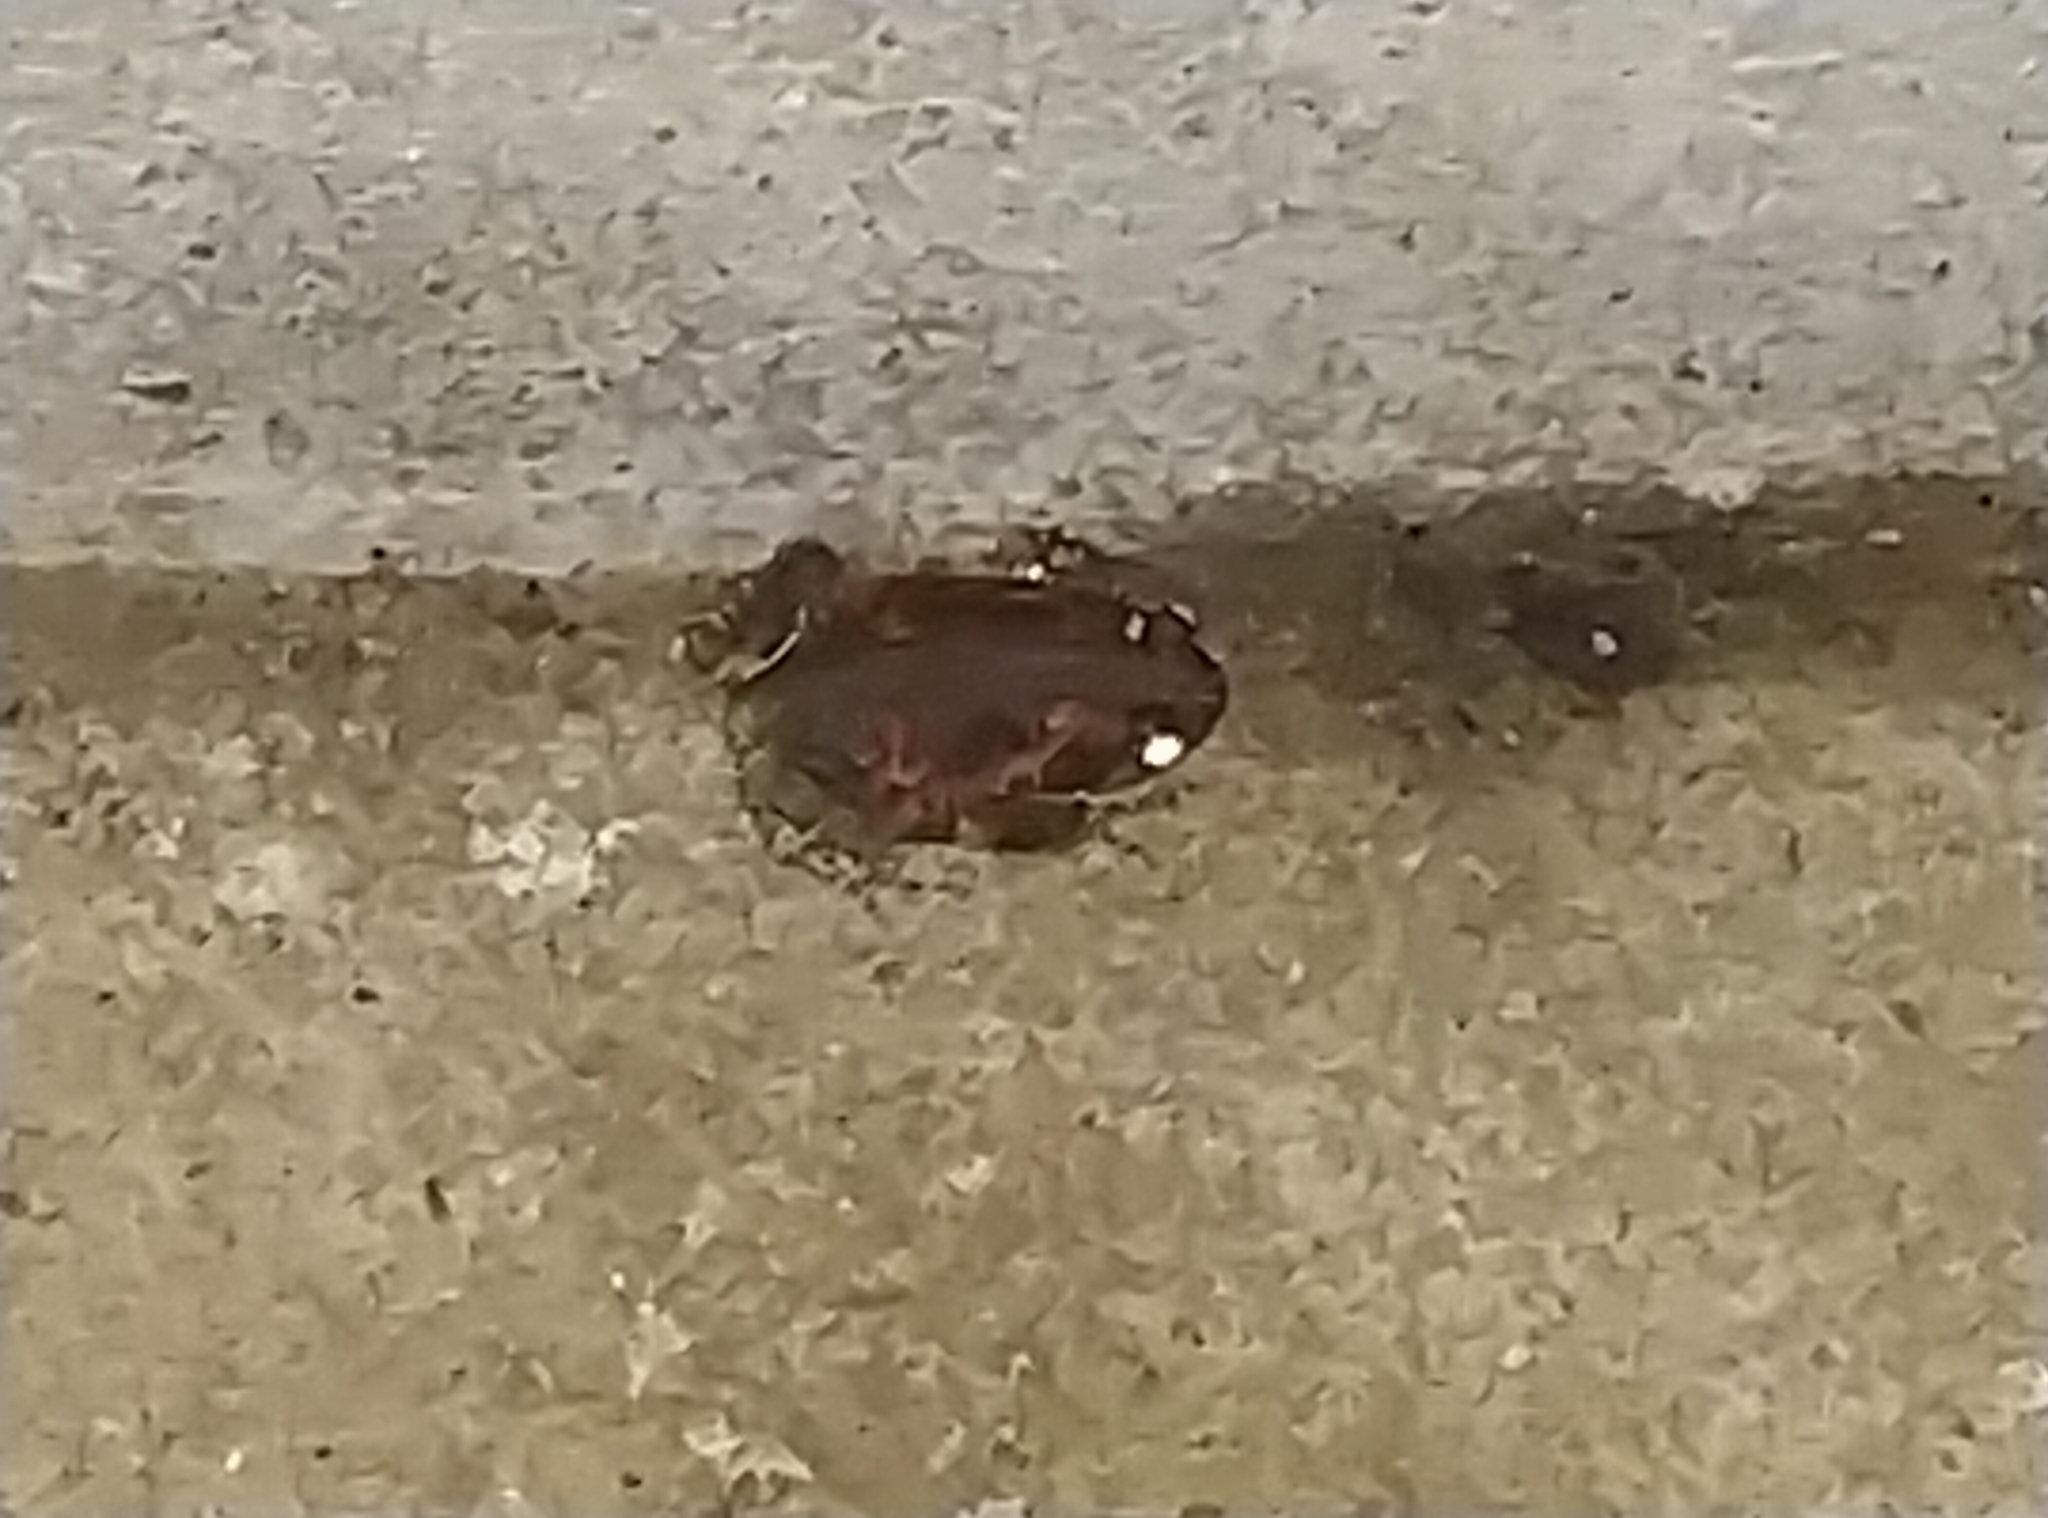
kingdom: Animalia
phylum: Chordata
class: Amphibia
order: Anura
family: Microhylidae
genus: Uperodon
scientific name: Uperodon taprobanicus
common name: Ceylon kaloula
